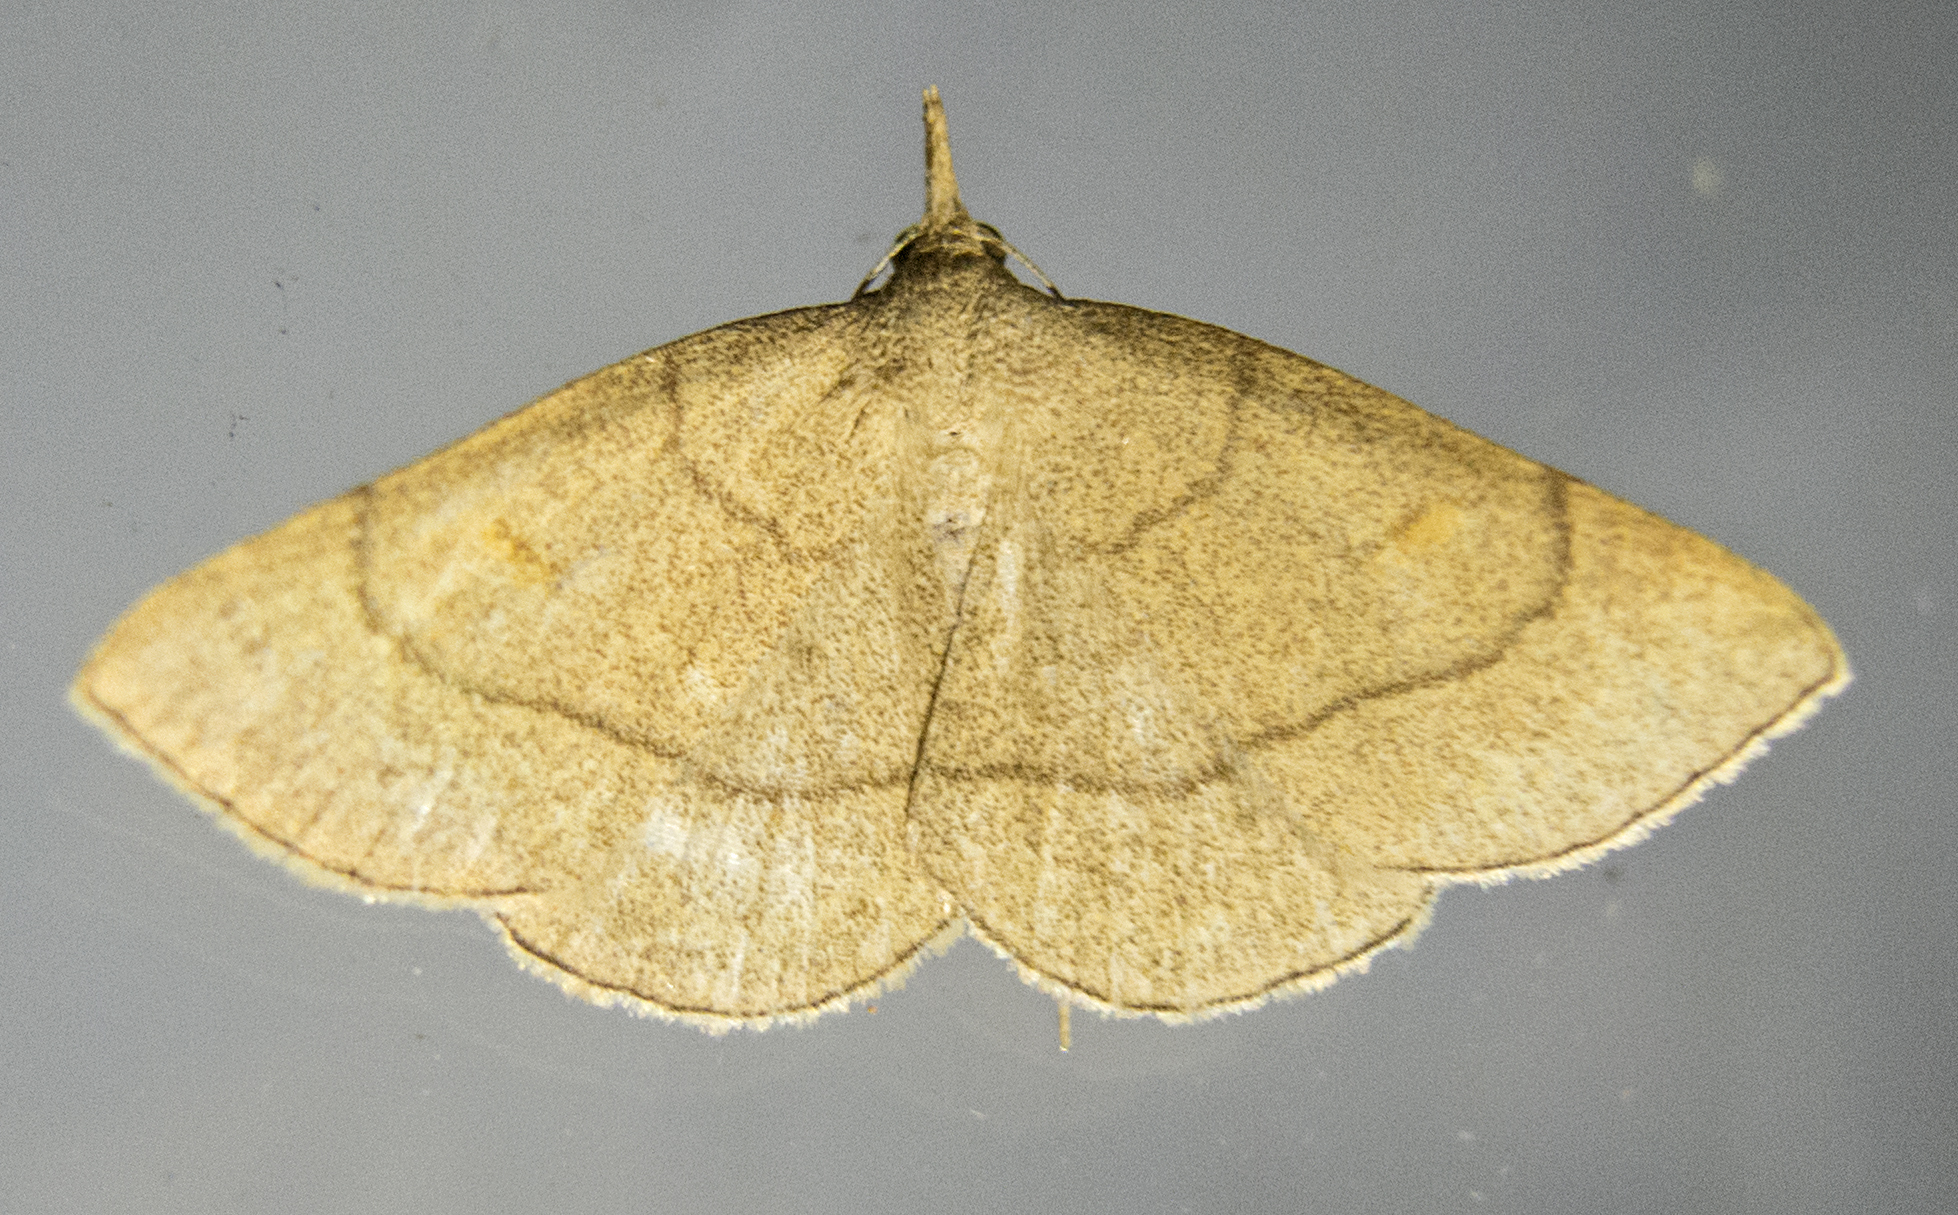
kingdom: Animalia
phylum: Arthropoda
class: Insecta
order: Lepidoptera
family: Erebidae
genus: Paracolax
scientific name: Paracolax tristalis
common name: Clay fan-foot
